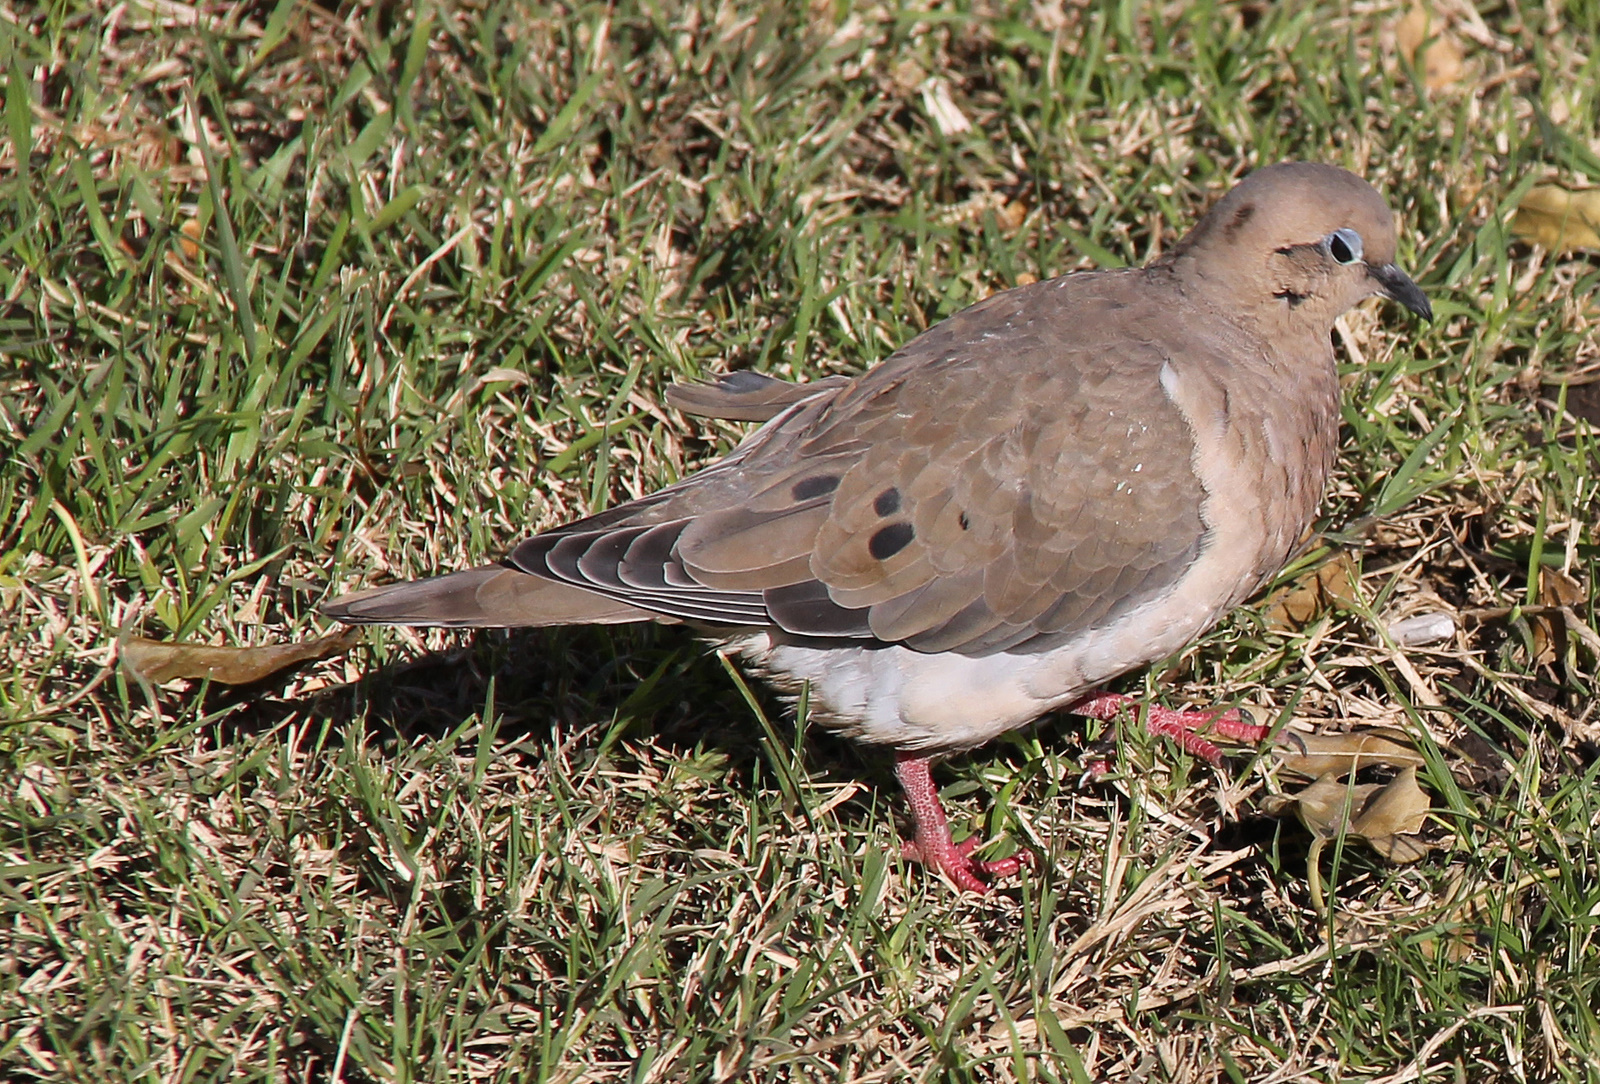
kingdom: Animalia
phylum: Chordata
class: Aves
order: Columbiformes
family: Columbidae
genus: Zenaida
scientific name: Zenaida auriculata
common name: Eared dove
